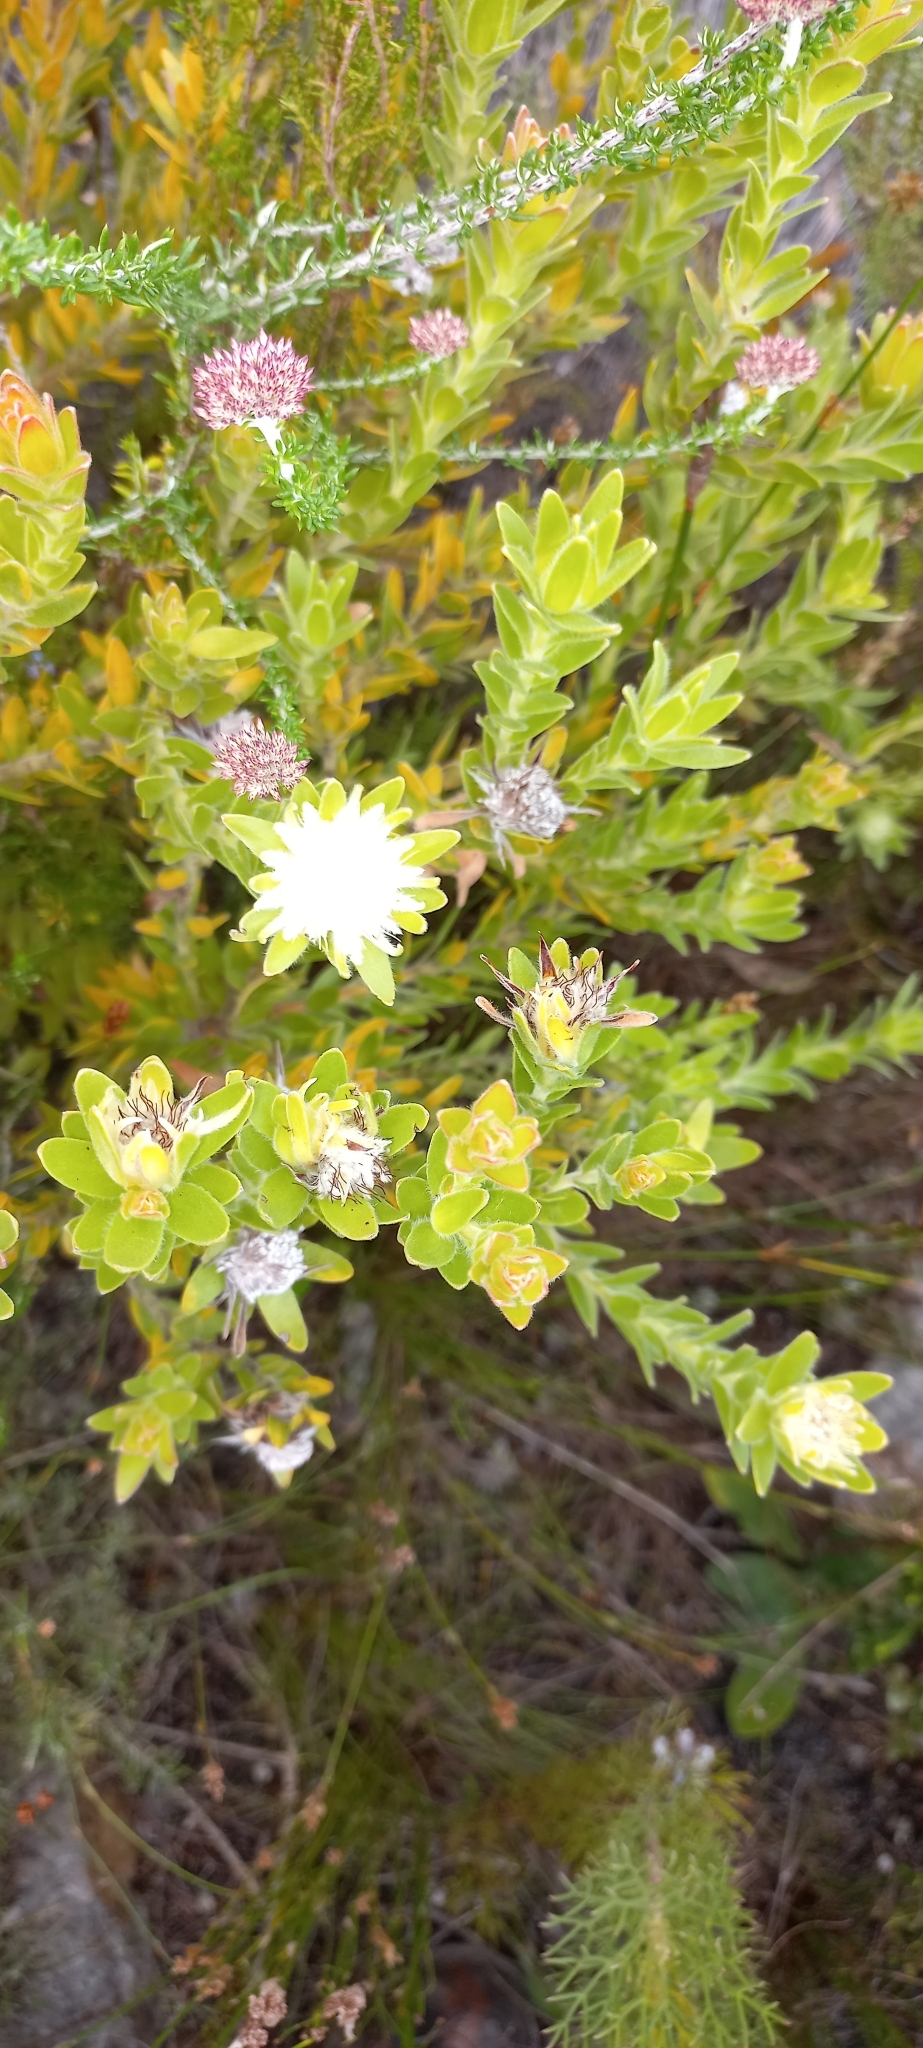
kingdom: Plantae
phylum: Tracheophyta
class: Magnoliopsida
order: Proteales
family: Proteaceae
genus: Diastella
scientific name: Diastella thymelaeoides
